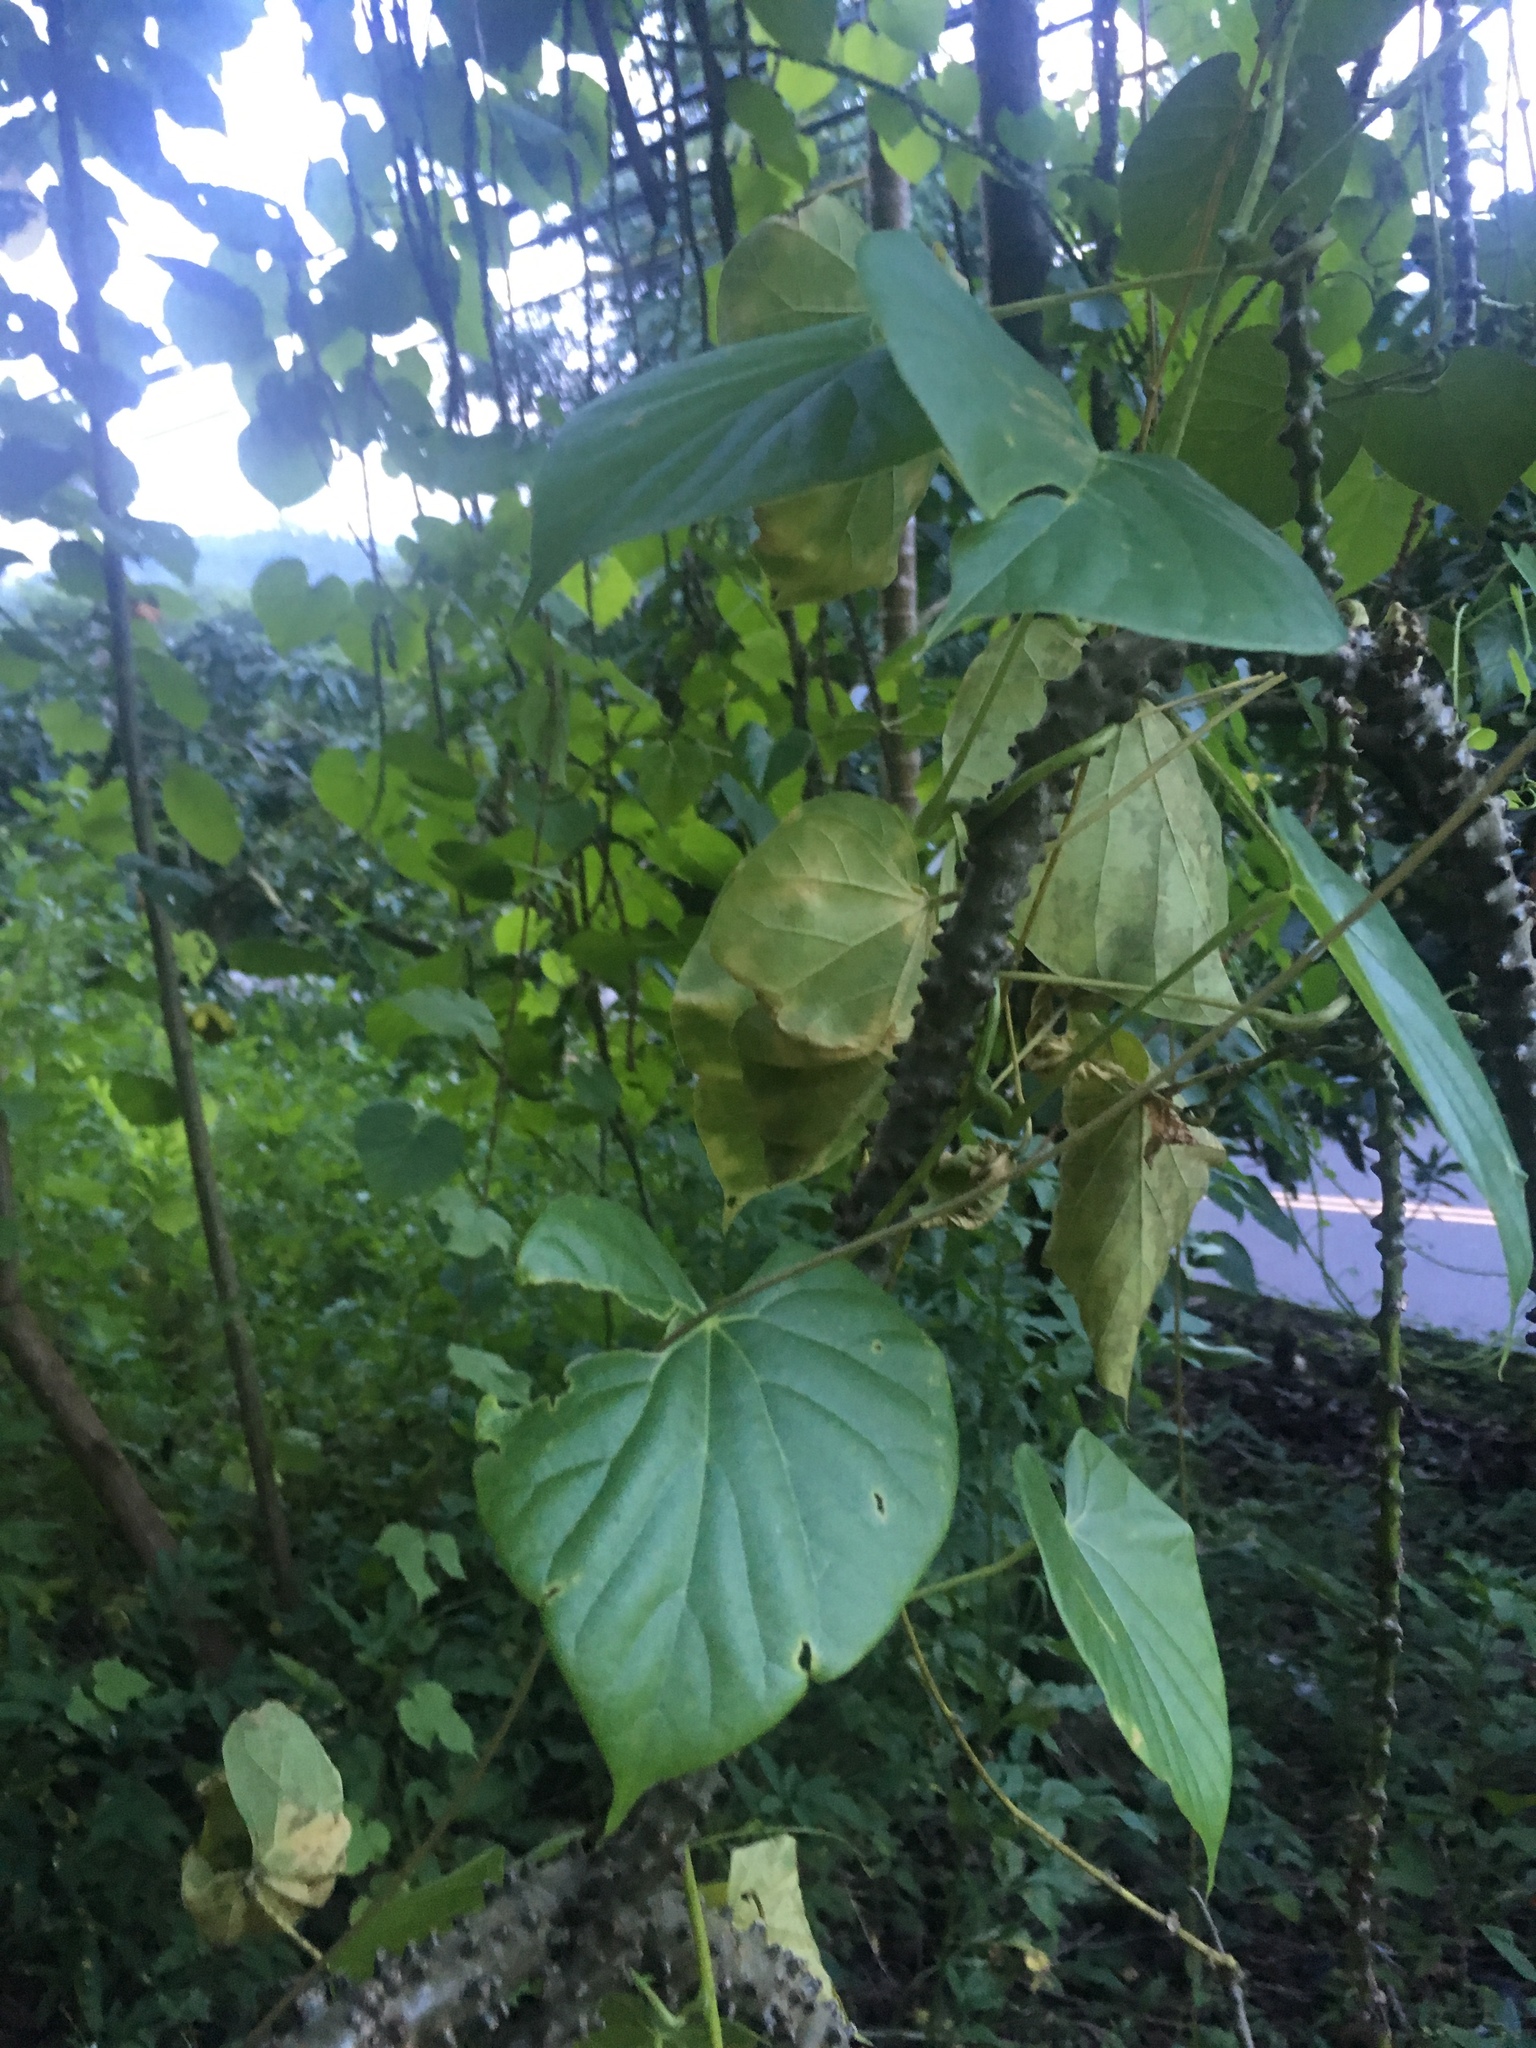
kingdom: Plantae
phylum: Tracheophyta
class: Magnoliopsida
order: Ranunculales
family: Menispermaceae
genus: Tinospora
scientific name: Tinospora crispa
